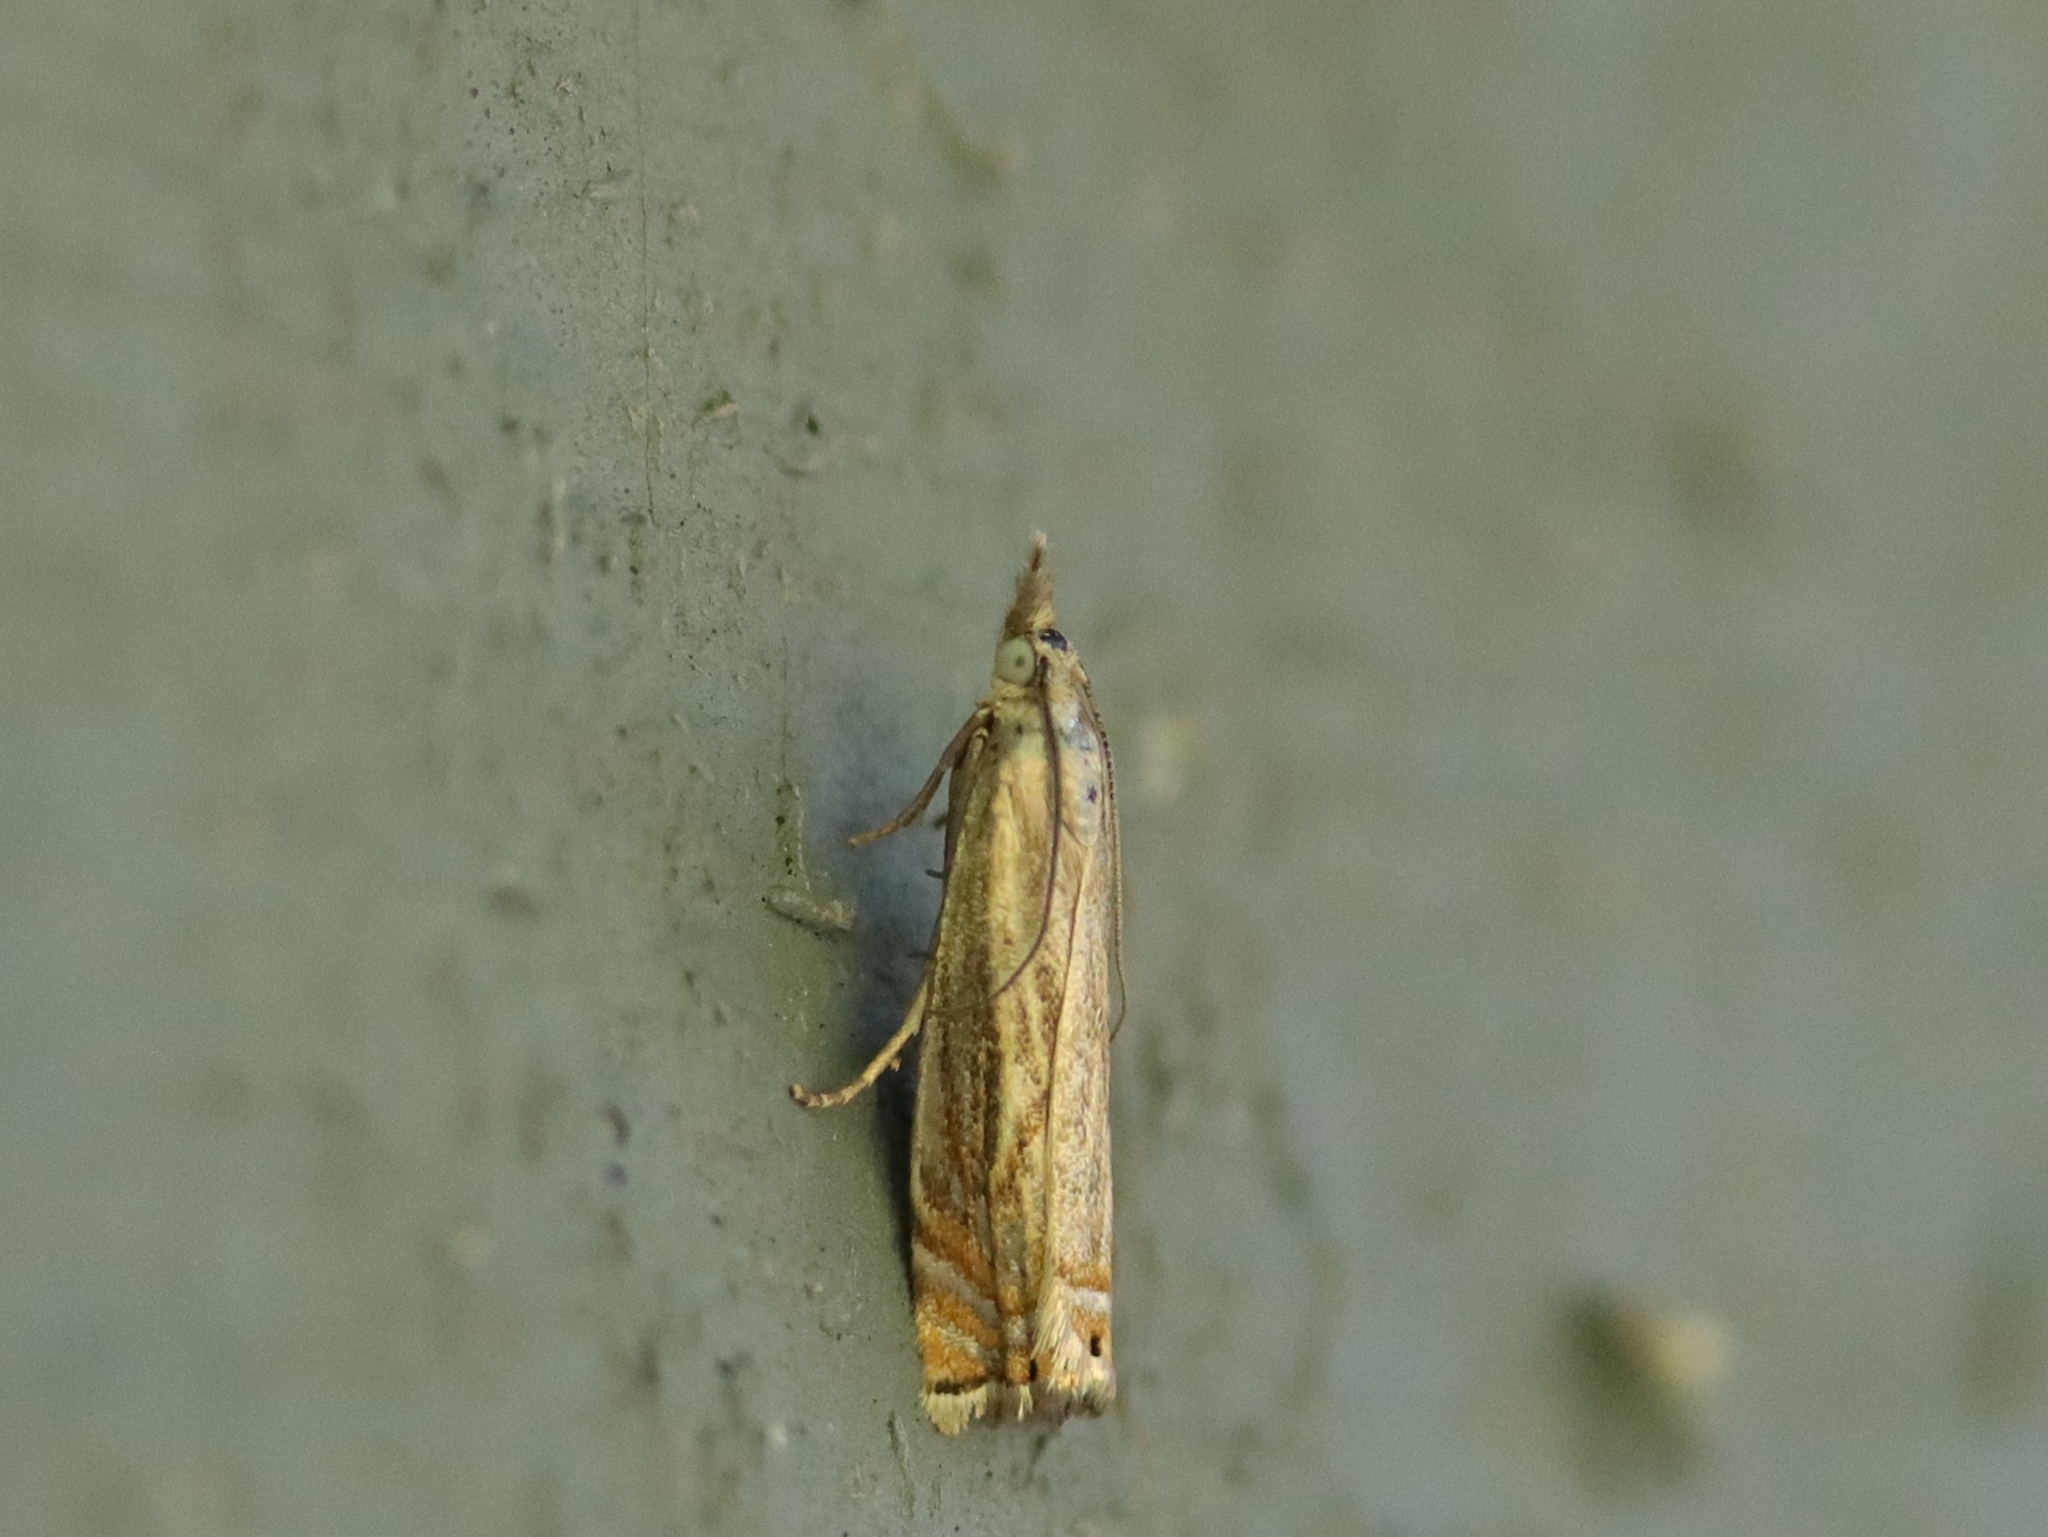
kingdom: Animalia
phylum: Arthropoda
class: Insecta
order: Lepidoptera
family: Crambidae
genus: Chrysoteuchia
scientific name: Chrysoteuchia topiarius
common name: Topiary grass-veneer
